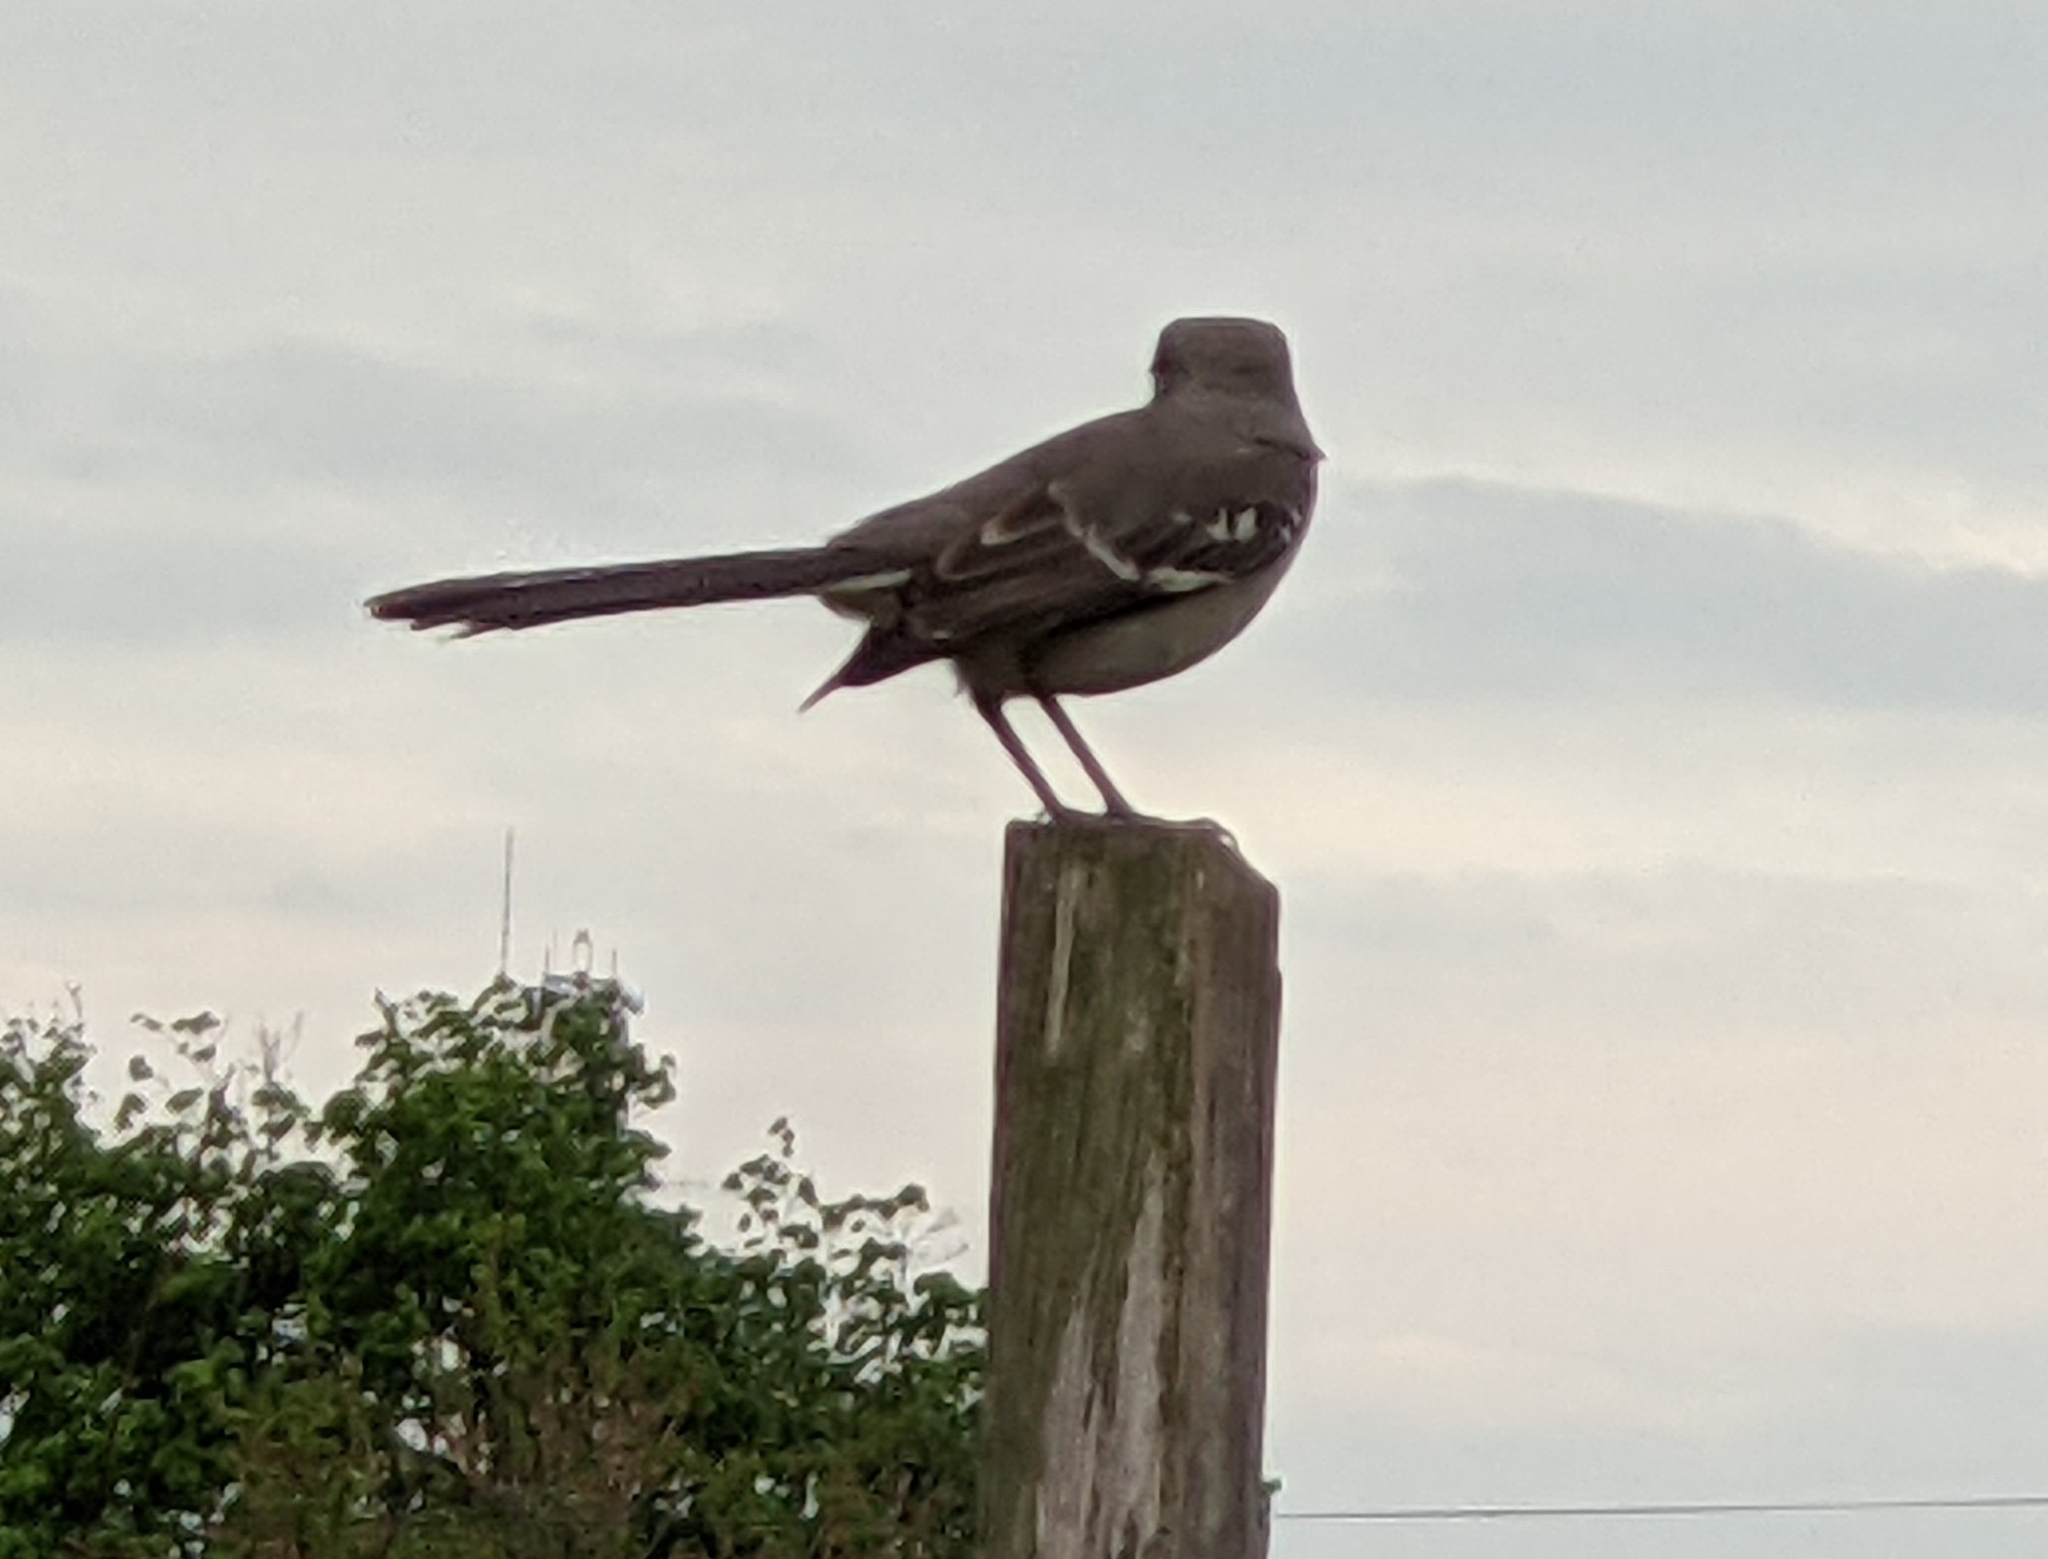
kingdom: Animalia
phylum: Chordata
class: Aves
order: Passeriformes
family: Mimidae
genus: Mimus
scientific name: Mimus polyglottos
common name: Northern mockingbird
